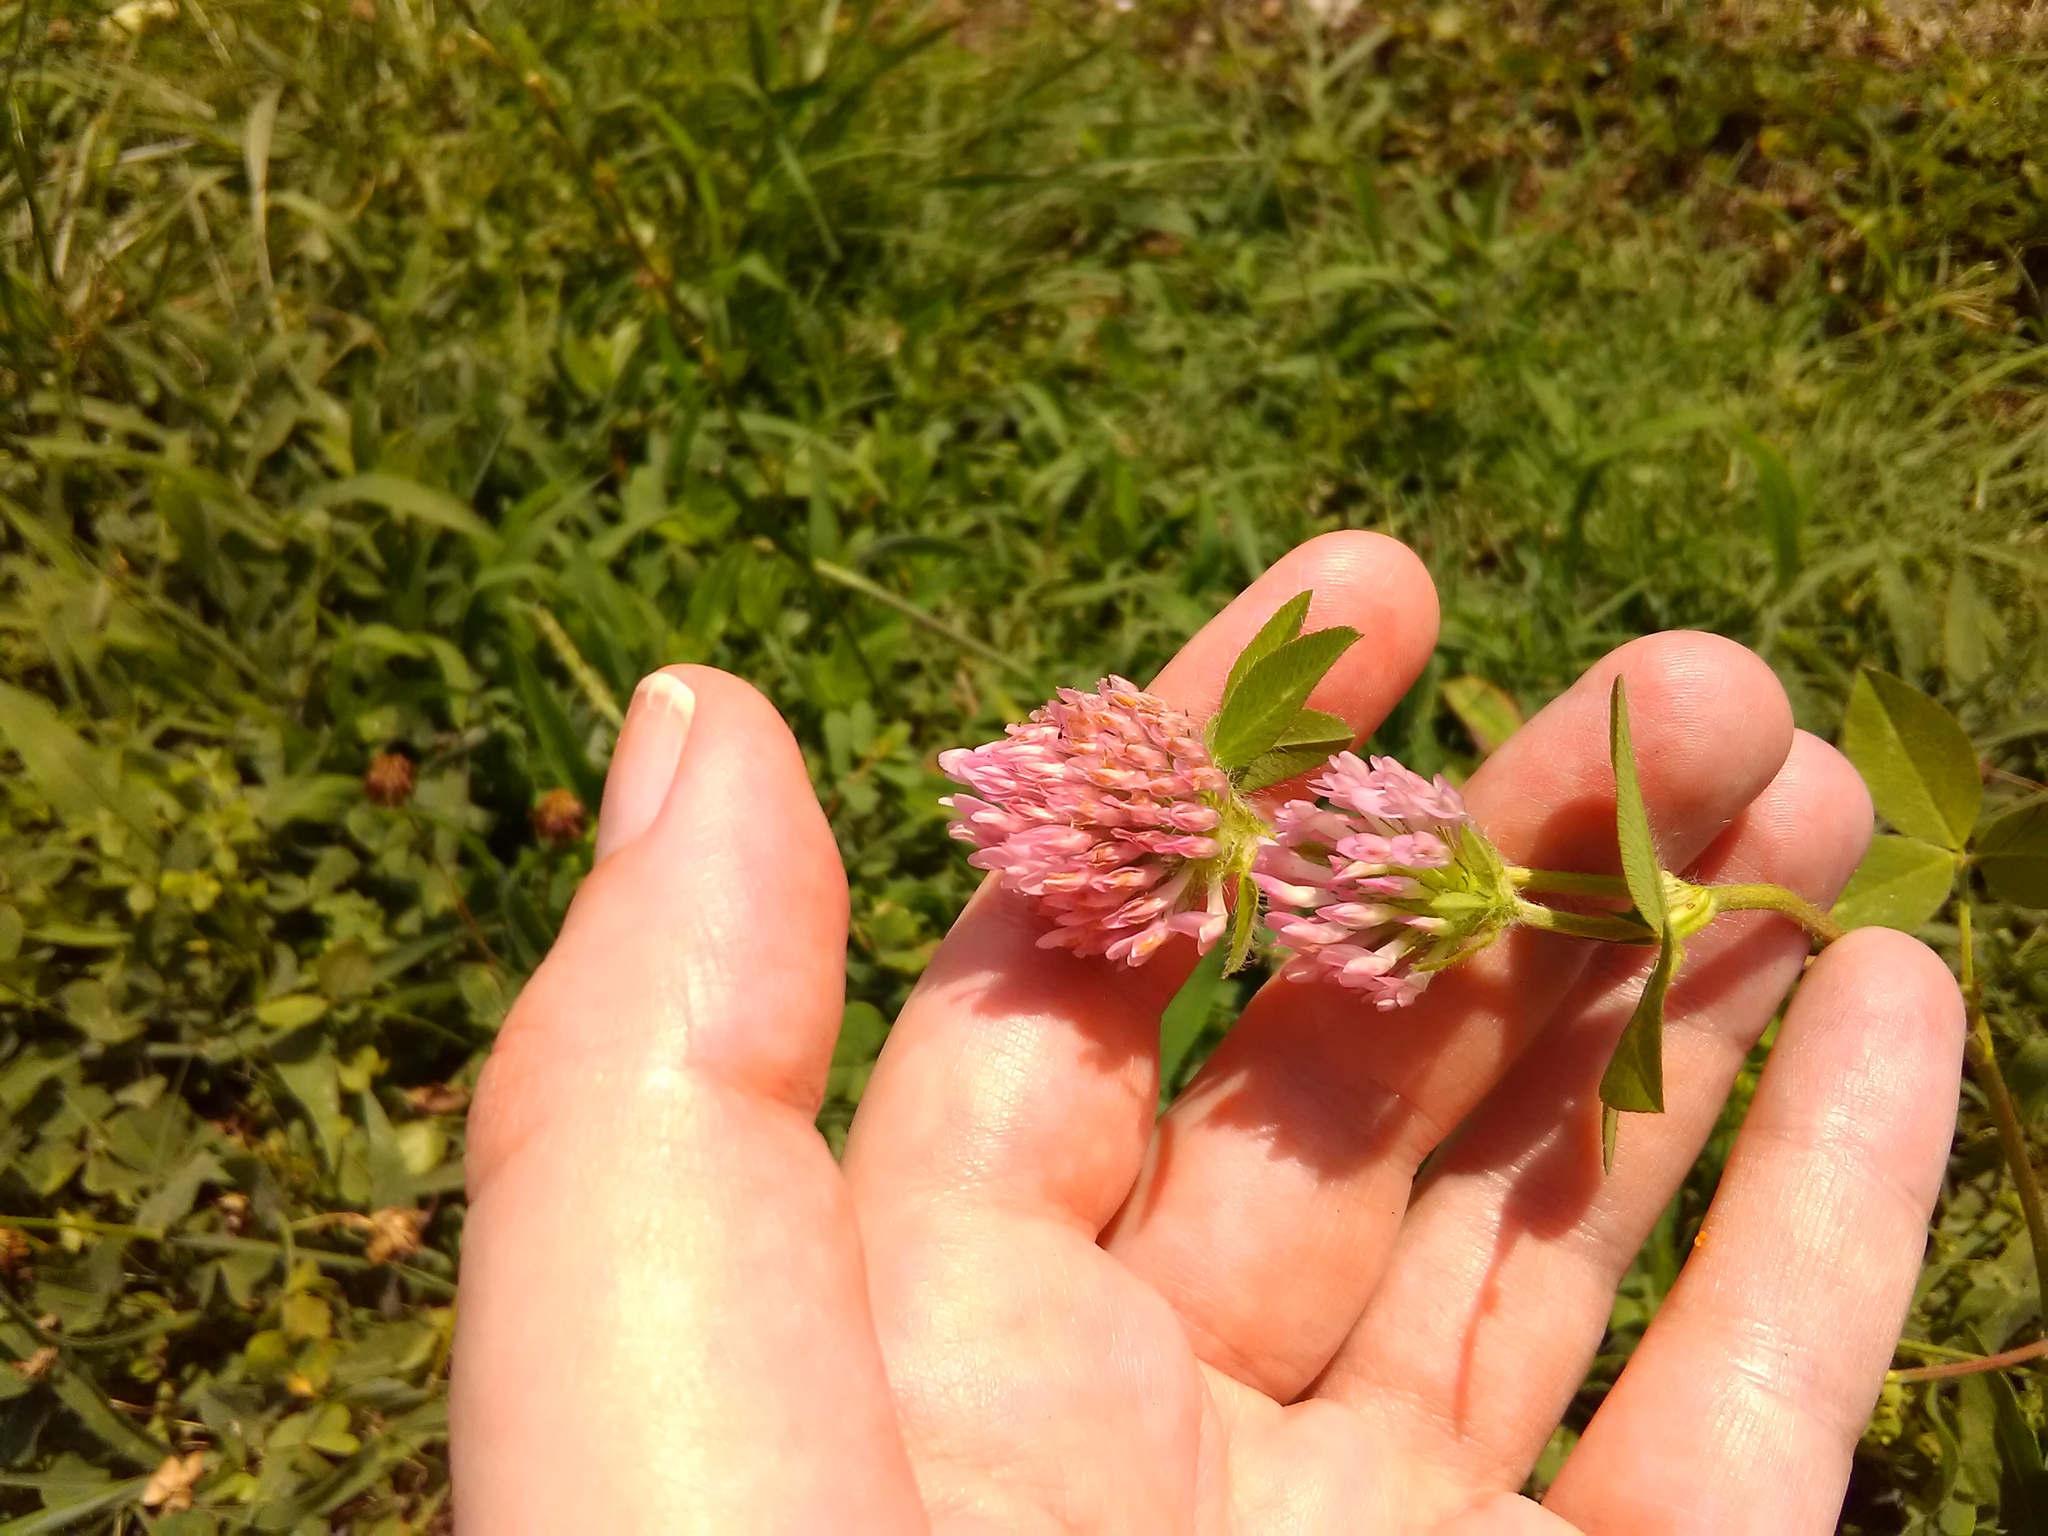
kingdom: Plantae
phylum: Tracheophyta
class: Magnoliopsida
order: Fabales
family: Fabaceae
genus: Trifolium
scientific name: Trifolium pratense
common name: Red clover
